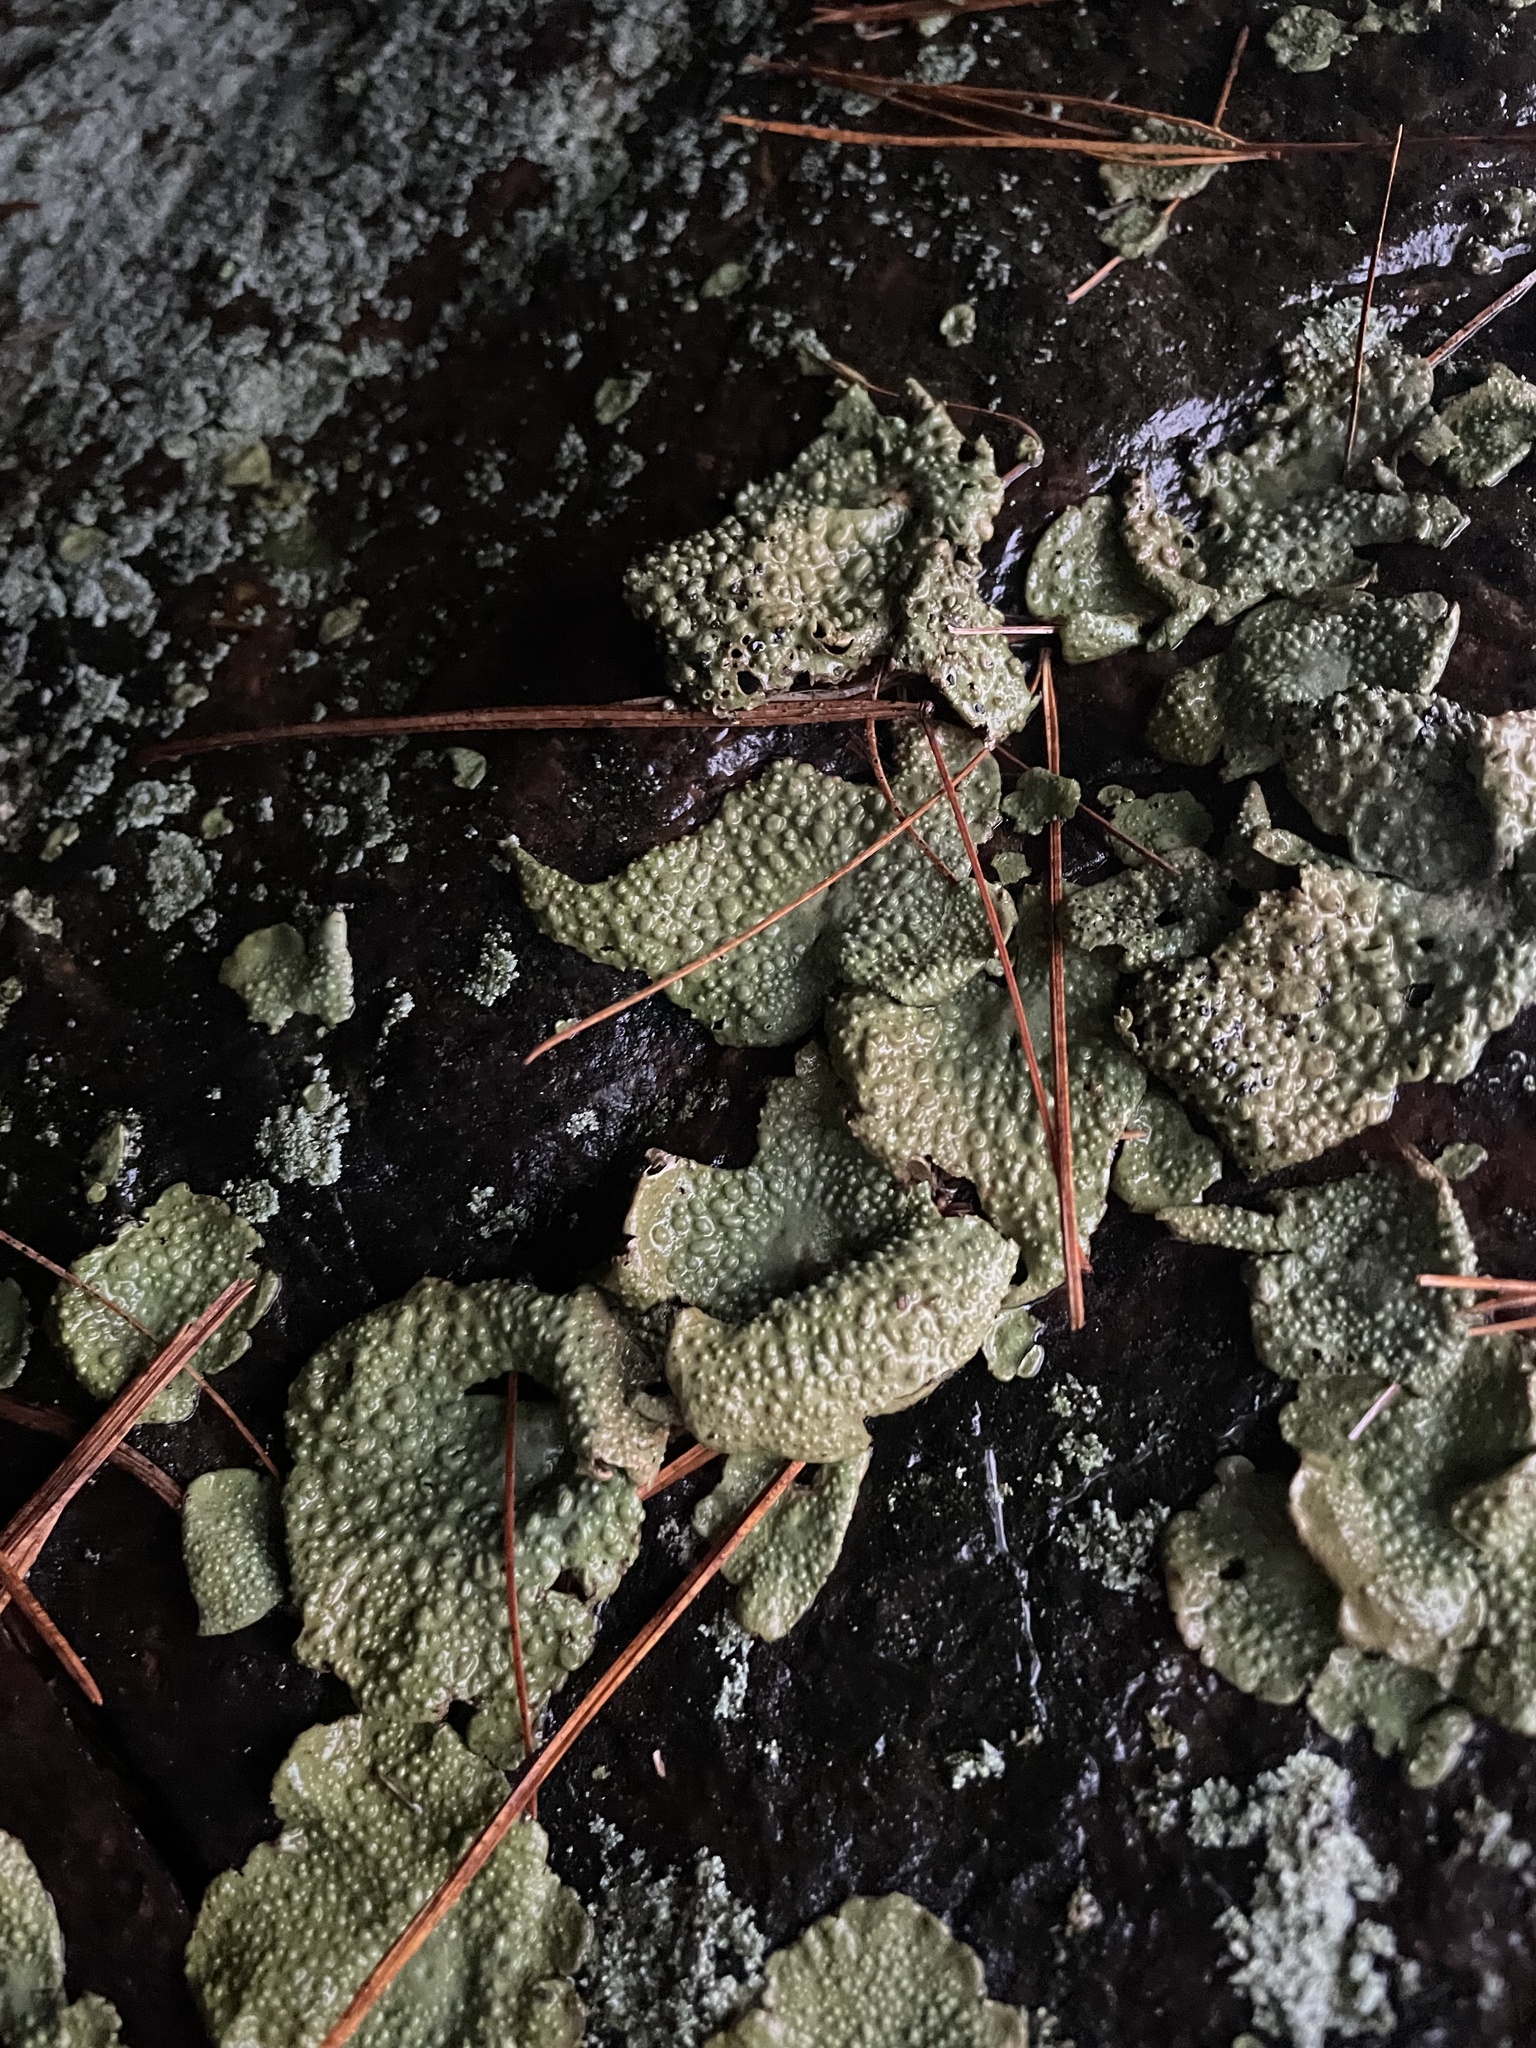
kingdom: Fungi
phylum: Ascomycota
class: Lecanoromycetes
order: Umbilicariales
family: Umbilicariaceae
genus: Lasallia
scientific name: Lasallia papulosa
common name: Common toadskin lichen
